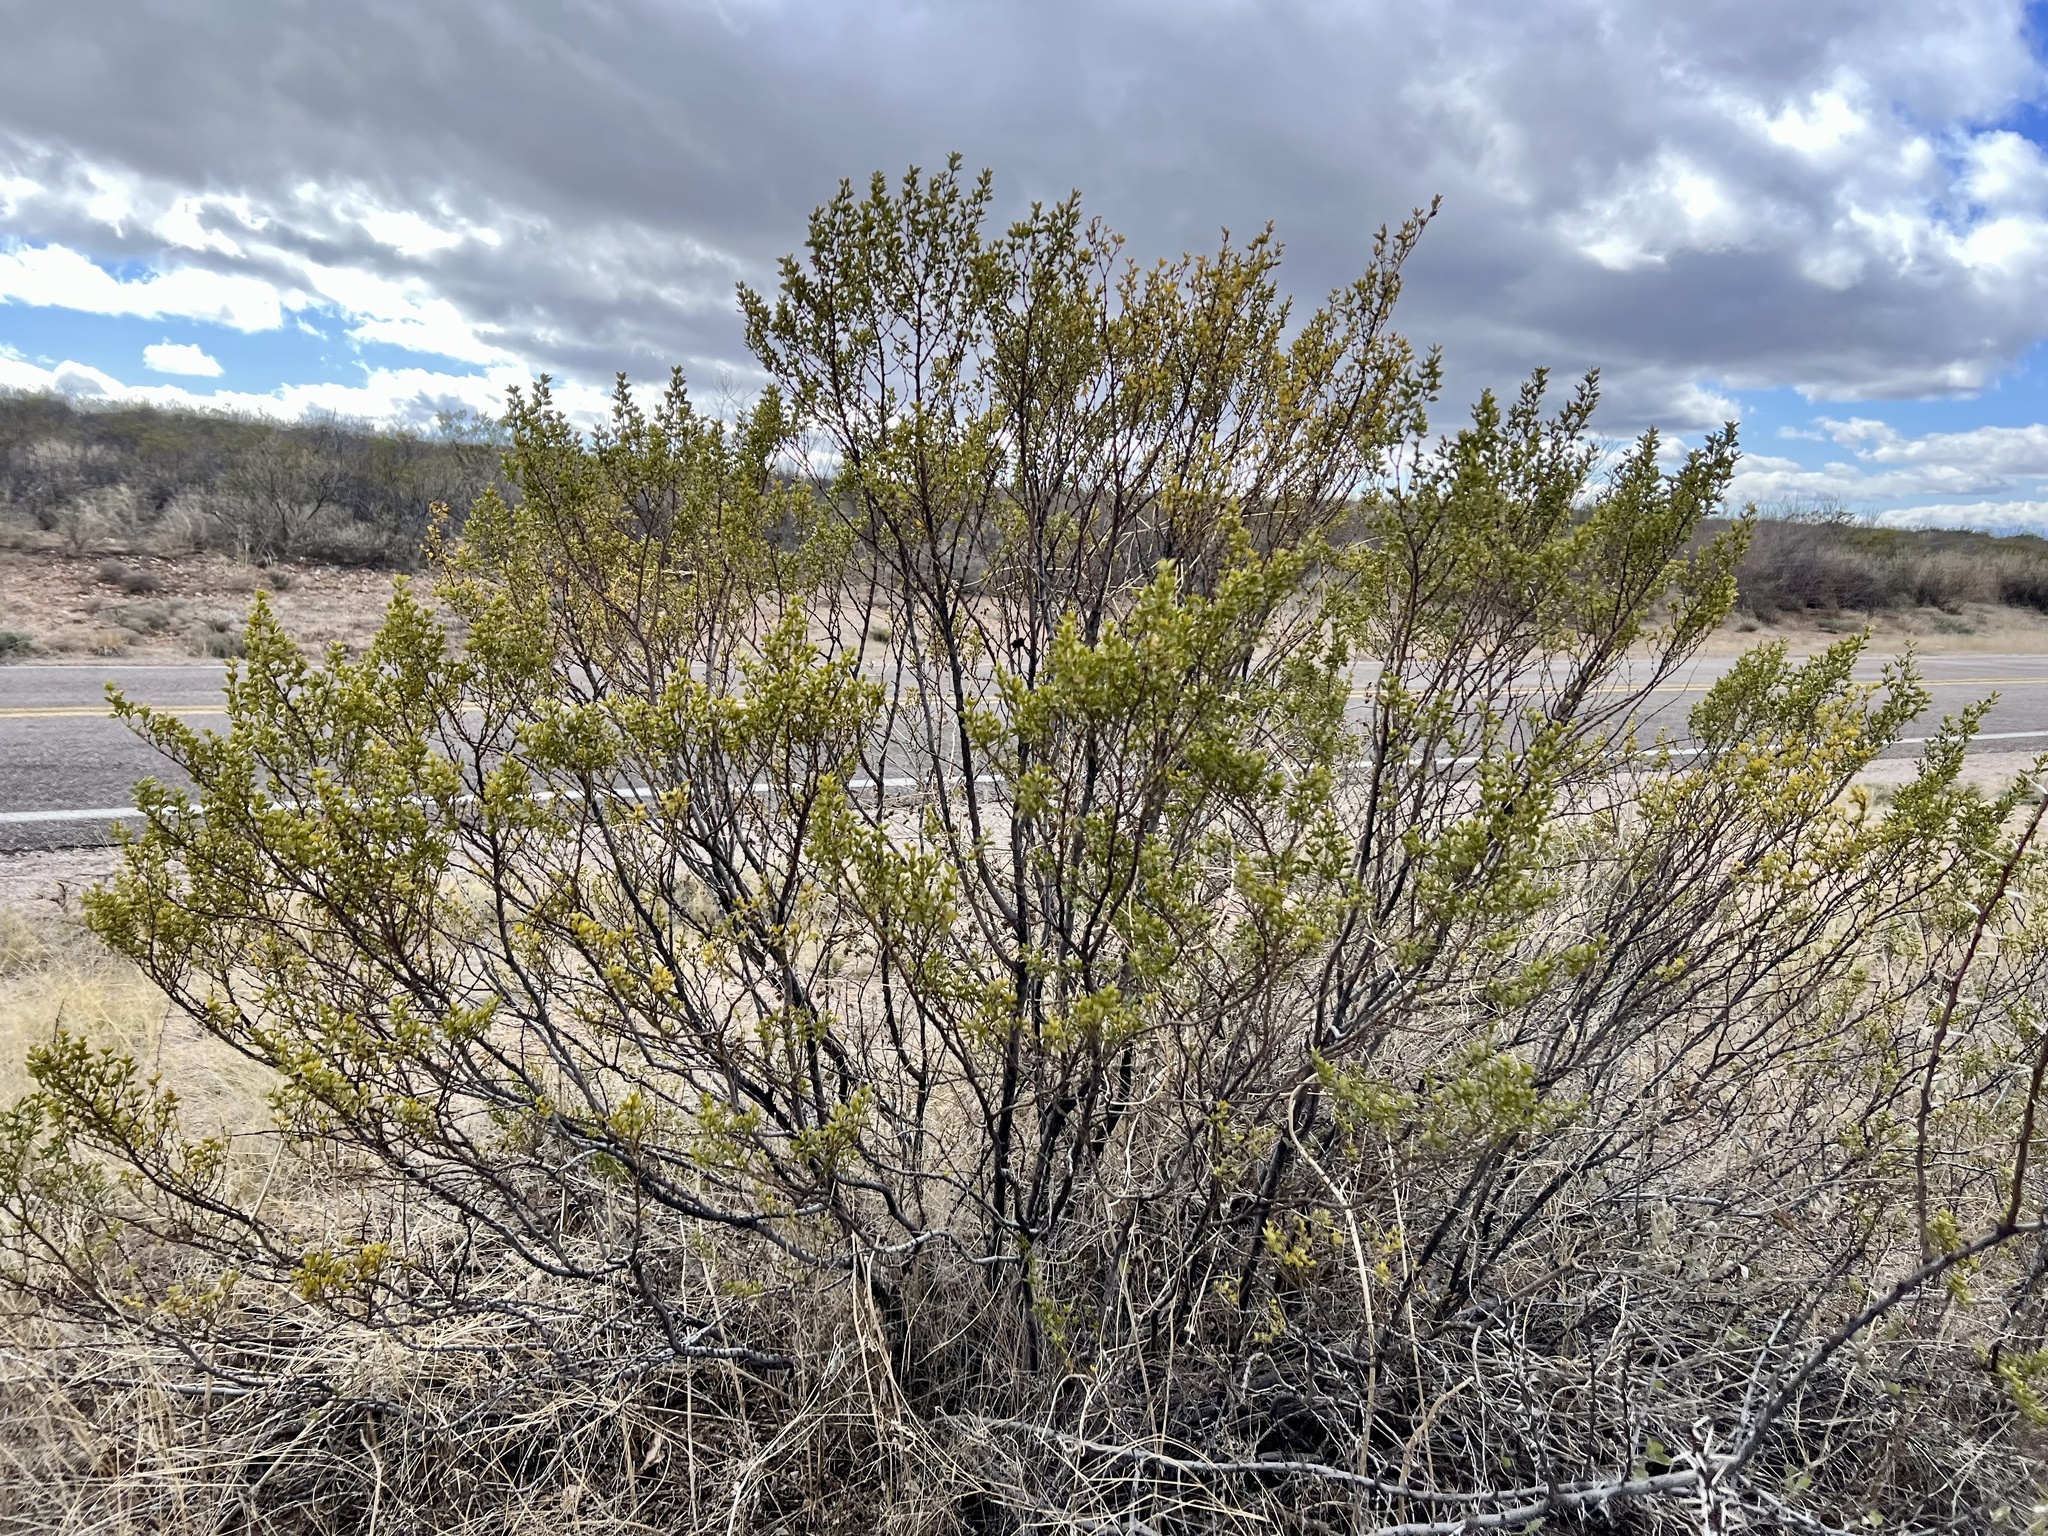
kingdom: Plantae
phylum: Tracheophyta
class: Magnoliopsida
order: Zygophyllales
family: Zygophyllaceae
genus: Larrea
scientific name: Larrea tridentata
